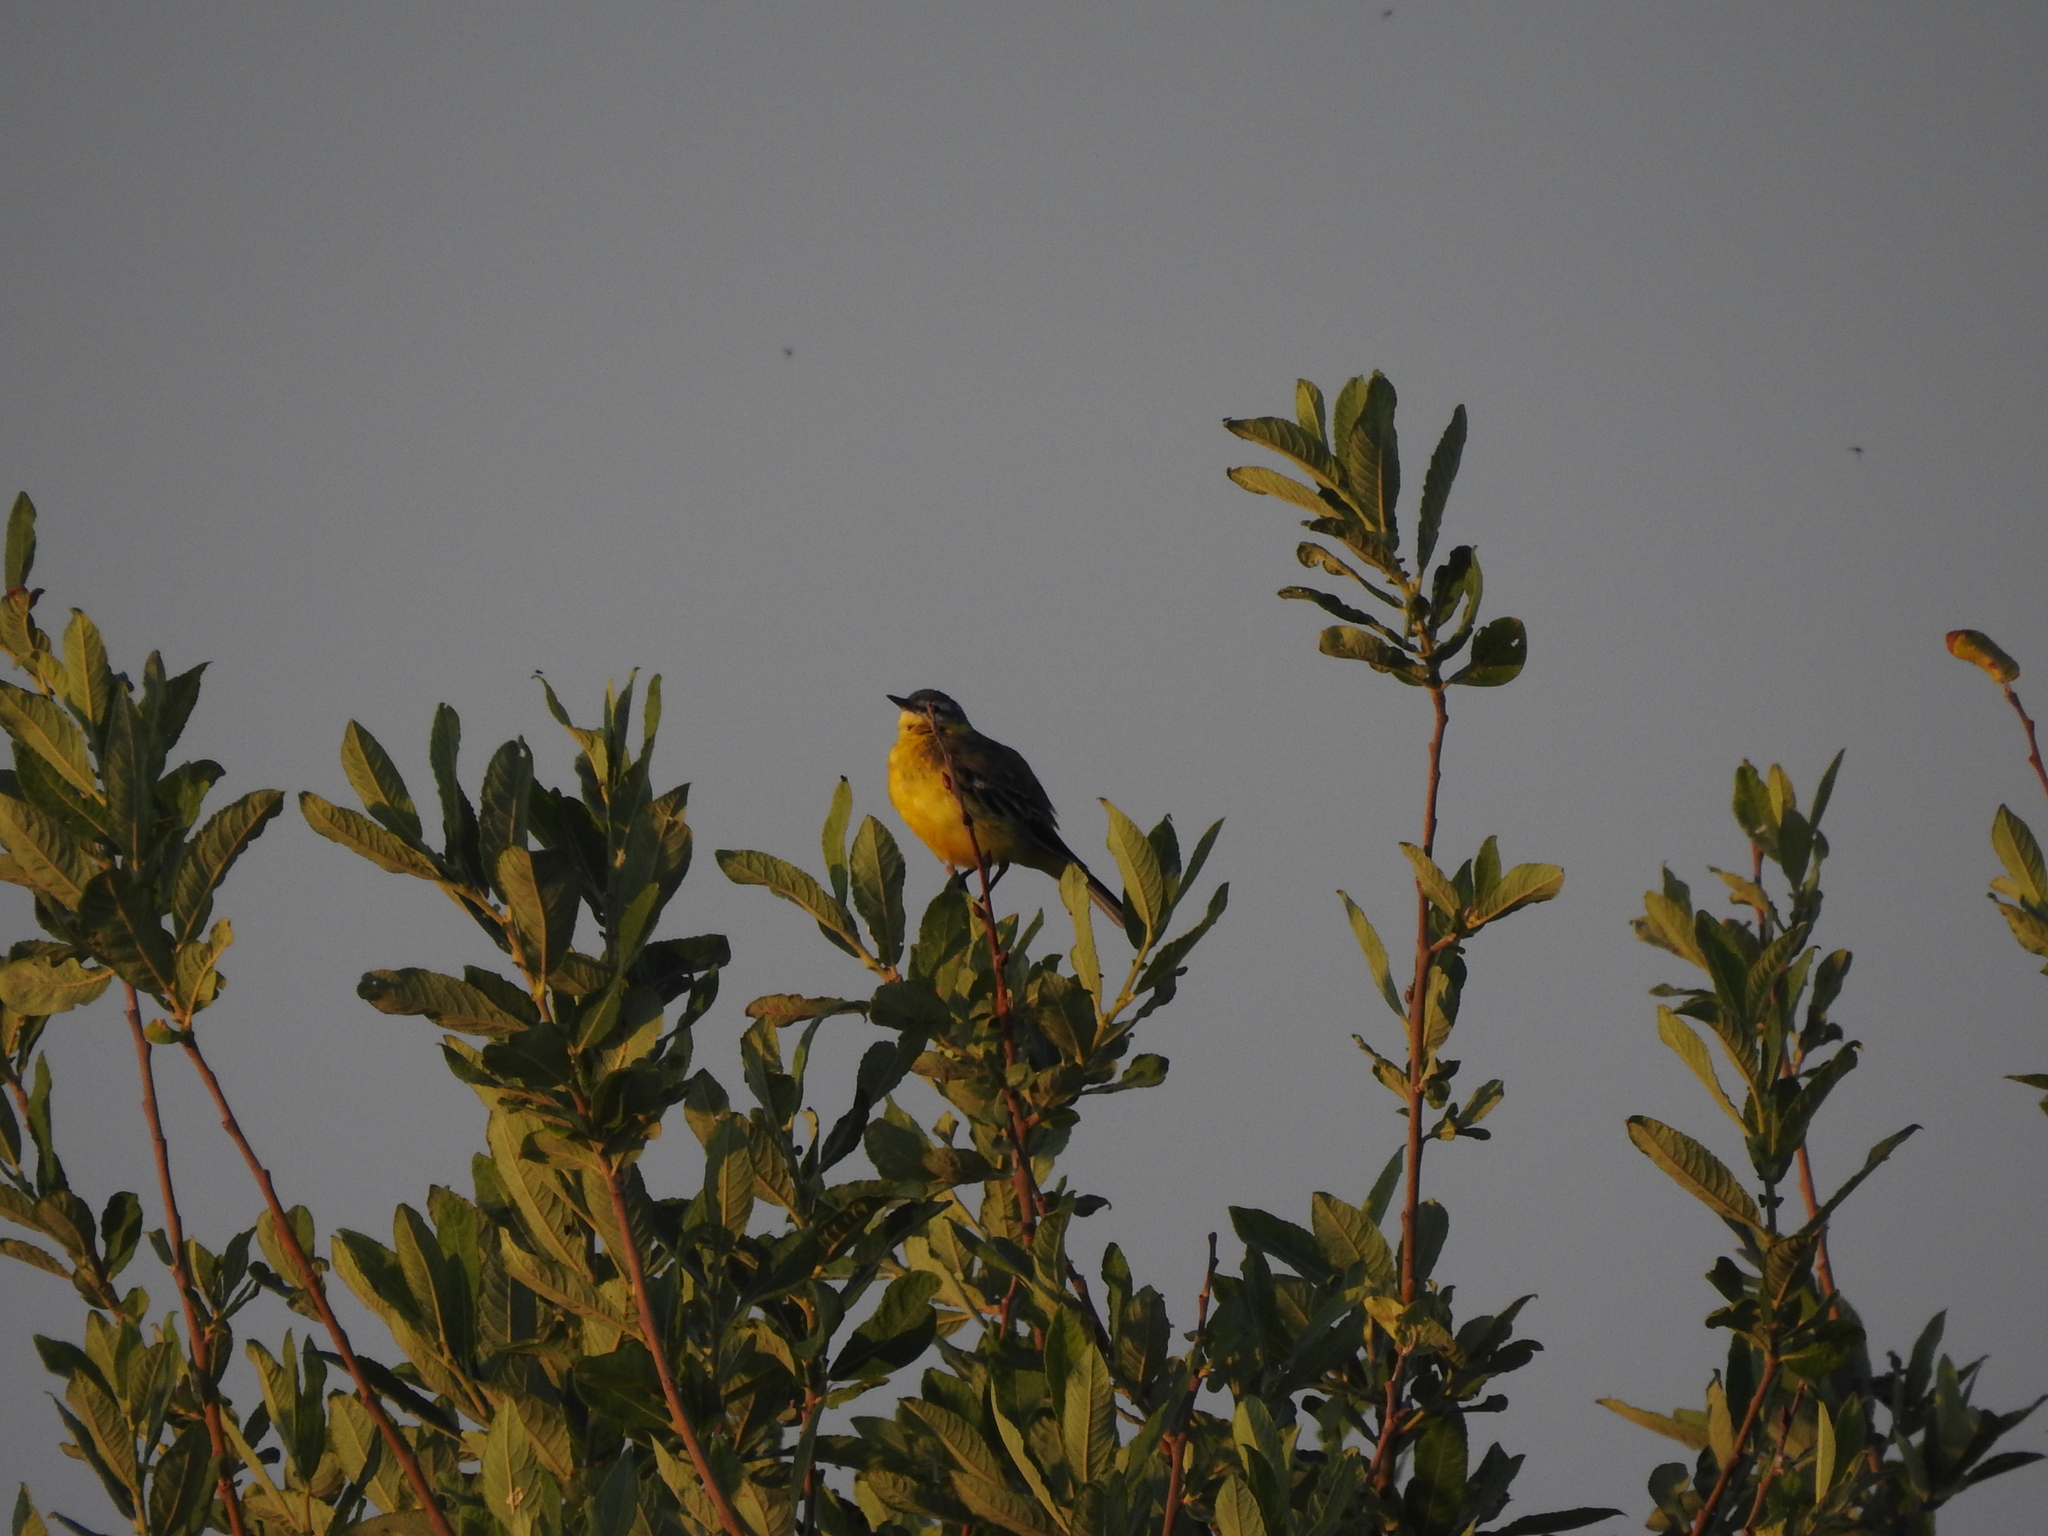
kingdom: Animalia
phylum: Chordata
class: Aves
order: Passeriformes
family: Motacillidae
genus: Motacilla
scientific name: Motacilla flava
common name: Western yellow wagtail
